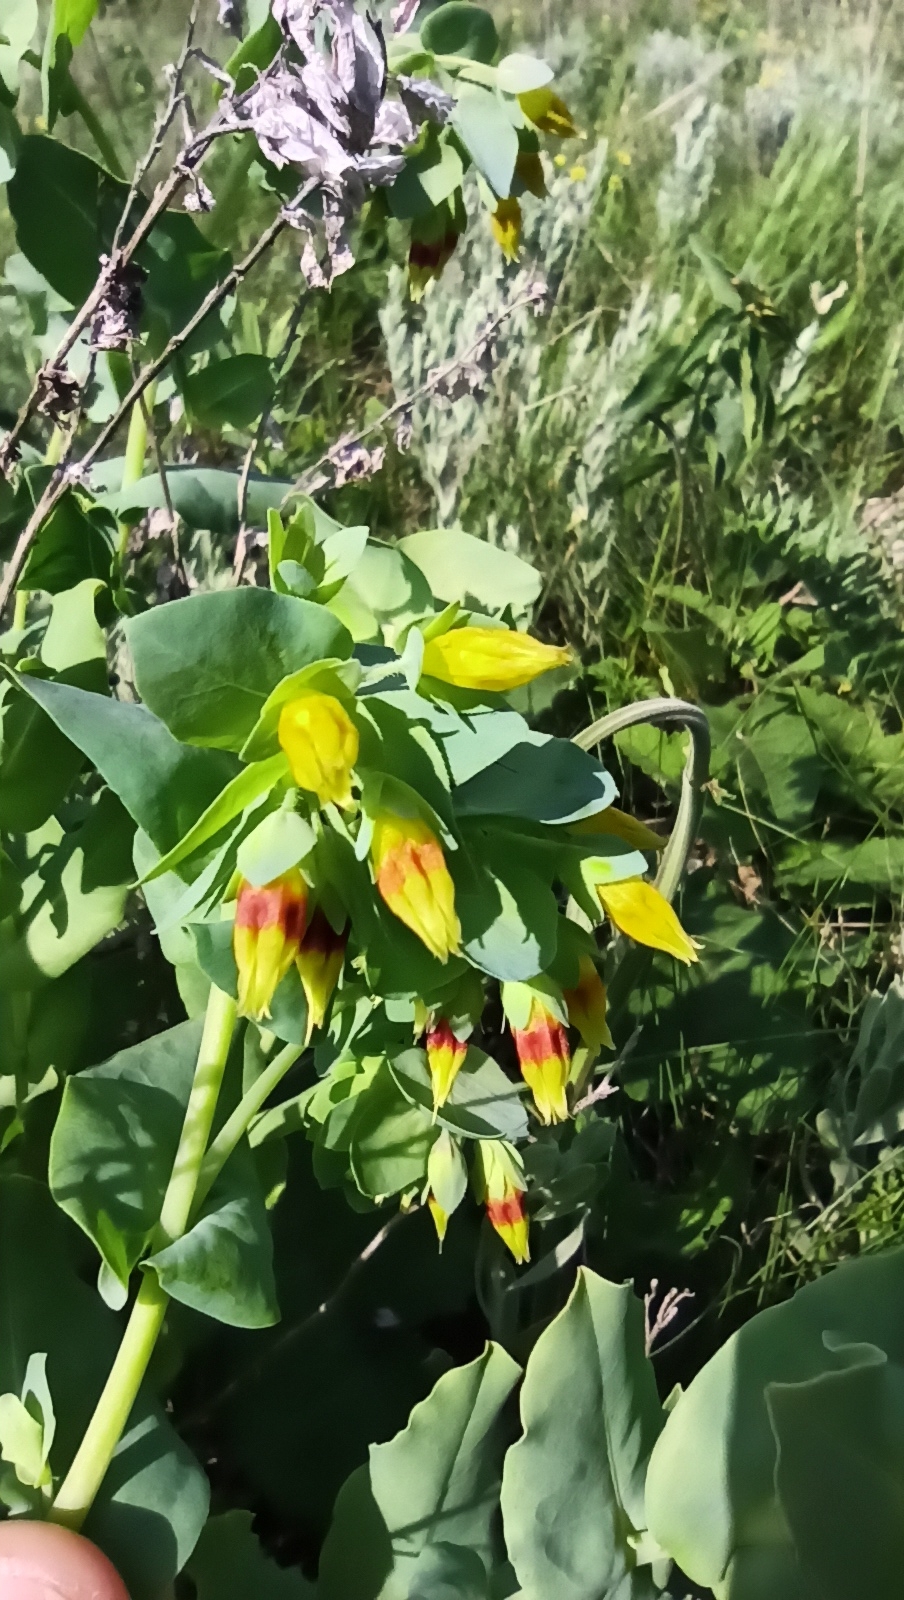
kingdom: Plantae
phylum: Tracheophyta
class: Magnoliopsida
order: Boraginales
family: Boraginaceae
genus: Cerinthe
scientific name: Cerinthe minor
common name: Lesser honeywort
